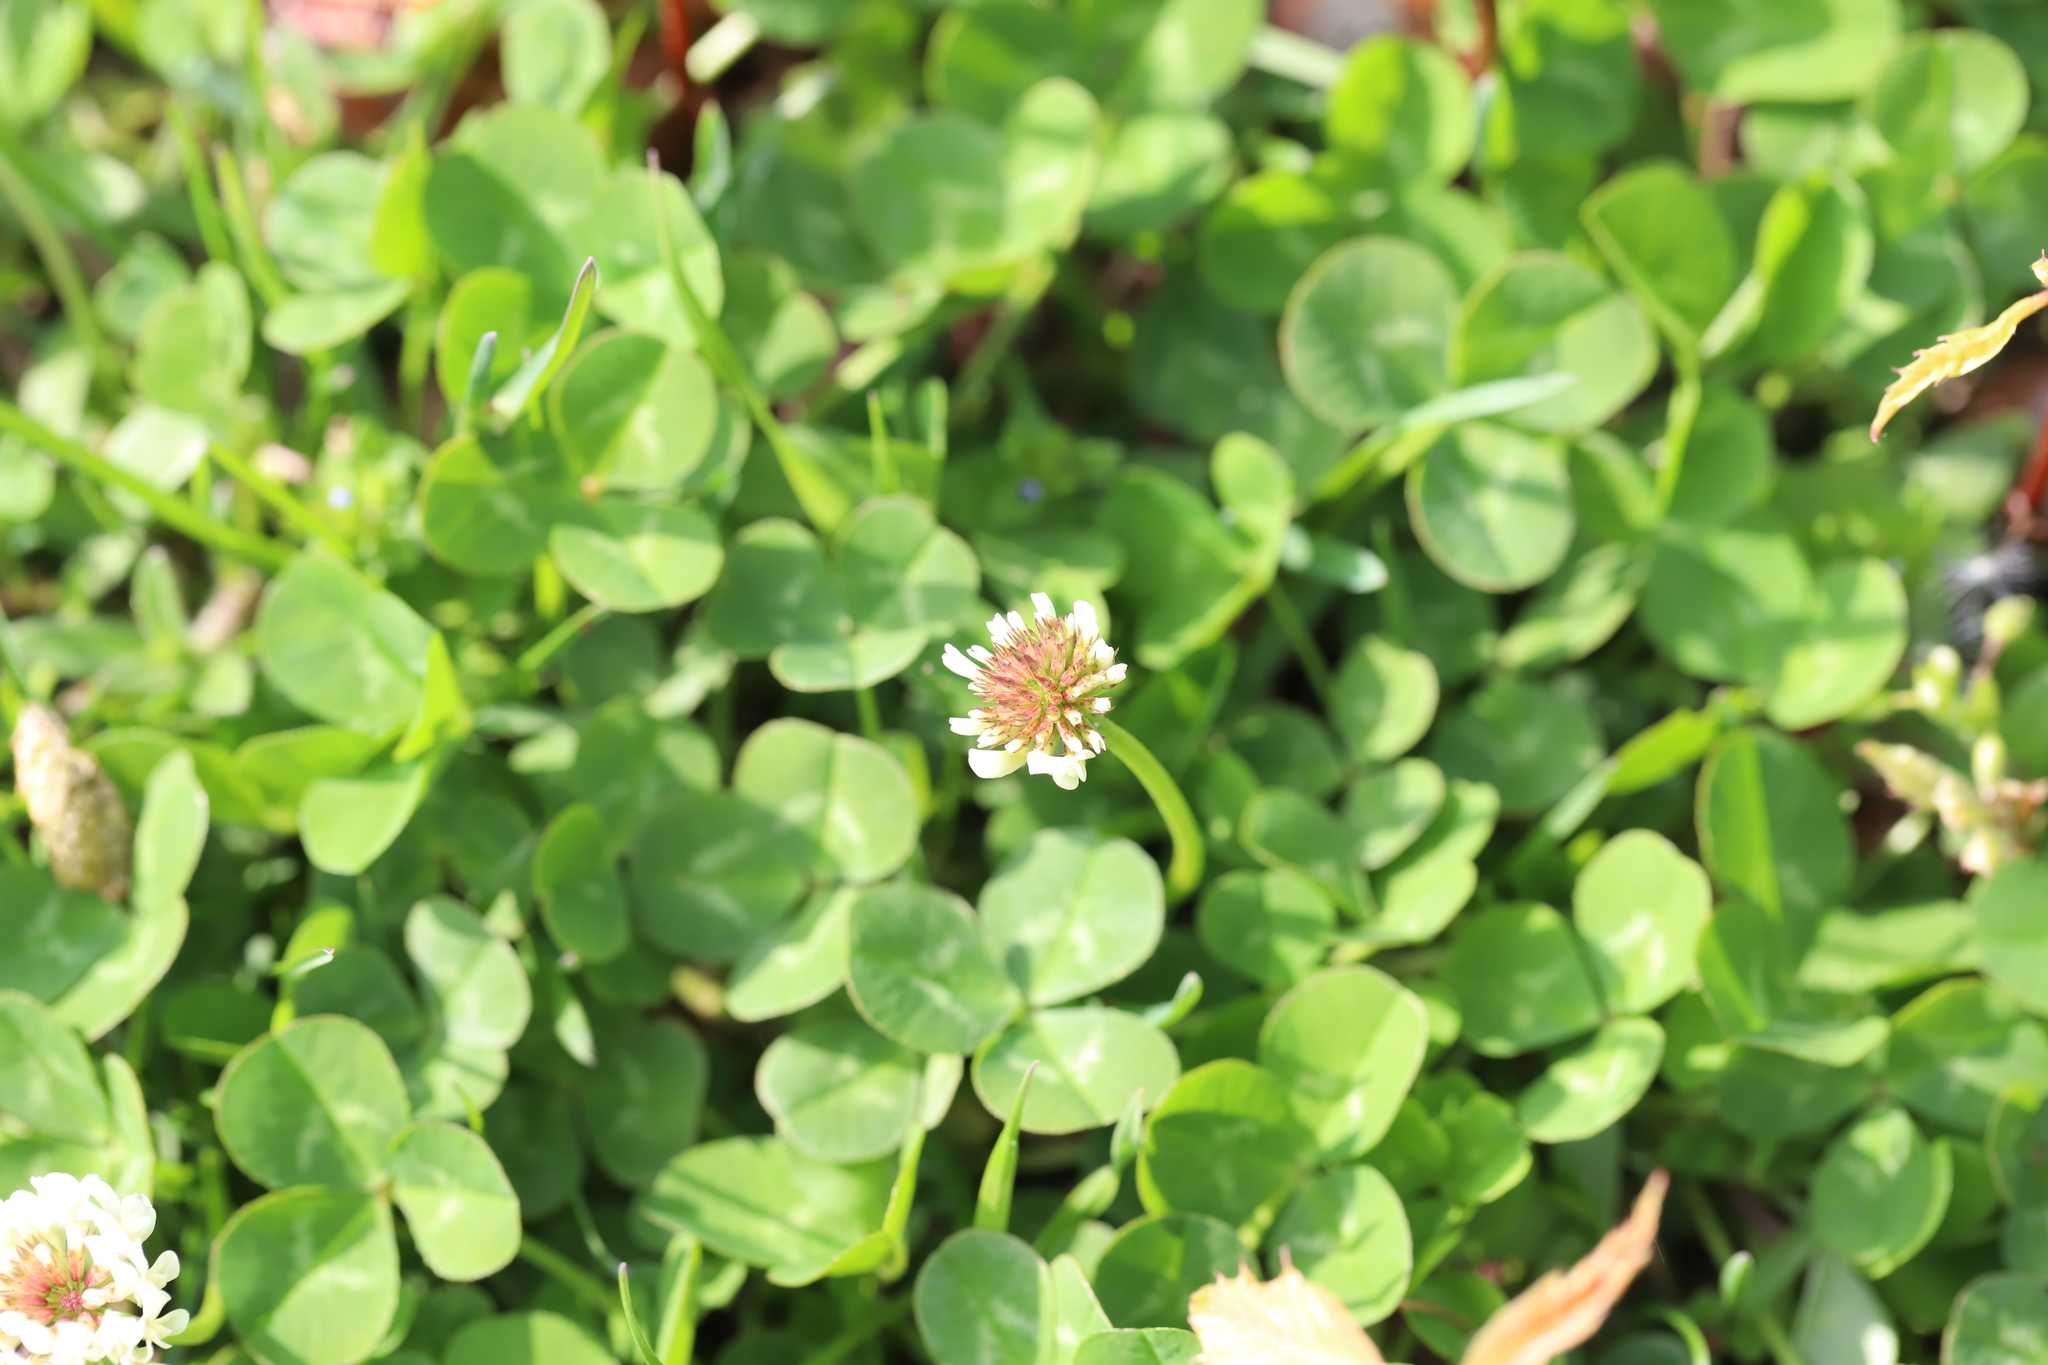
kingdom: Plantae
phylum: Tracheophyta
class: Magnoliopsida
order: Fabales
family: Fabaceae
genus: Trifolium
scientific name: Trifolium repens
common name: White clover
